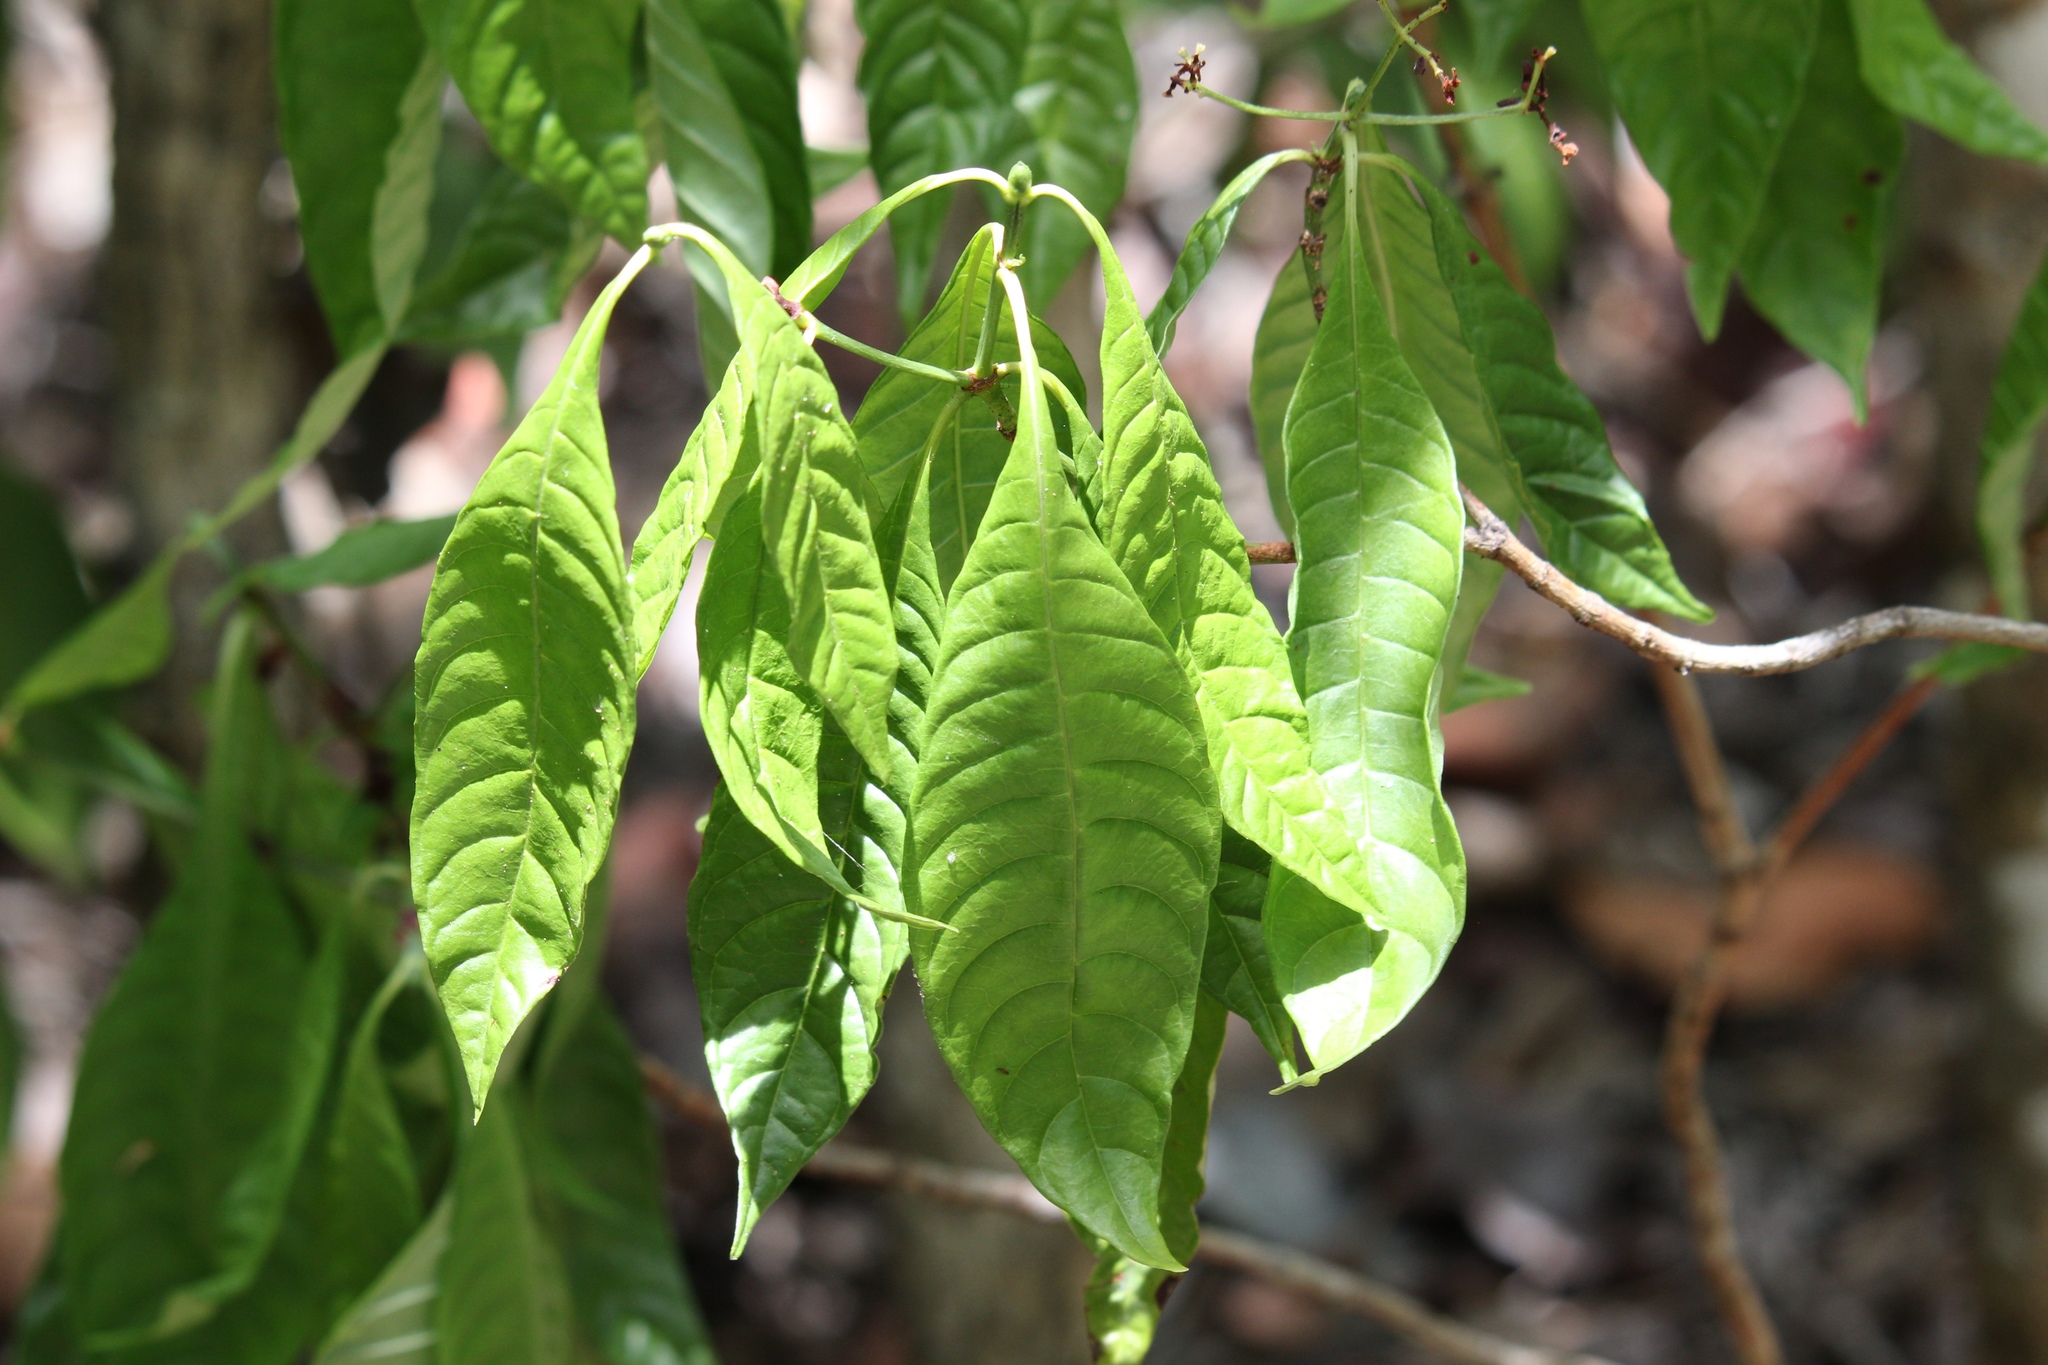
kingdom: Plantae
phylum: Tracheophyta
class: Magnoliopsida
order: Gentianales
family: Rubiaceae
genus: Psychotria
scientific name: Psychotria tenuifolia
